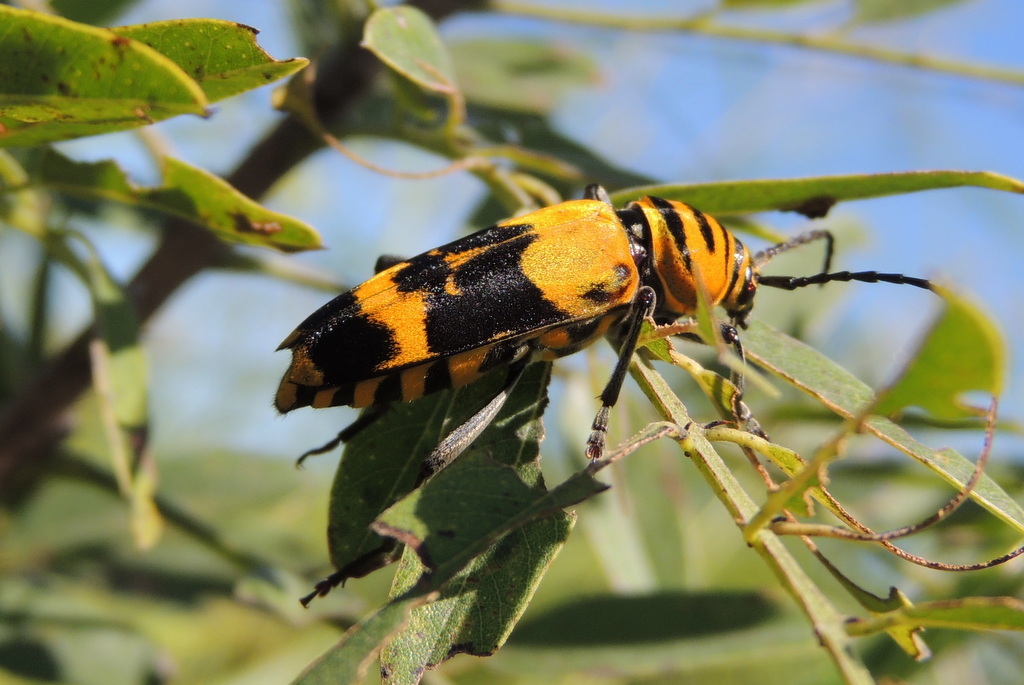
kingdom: Animalia
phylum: Arthropoda
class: Insecta
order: Coleoptera
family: Cerambycidae
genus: Megacyllene
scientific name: Megacyllene decora
